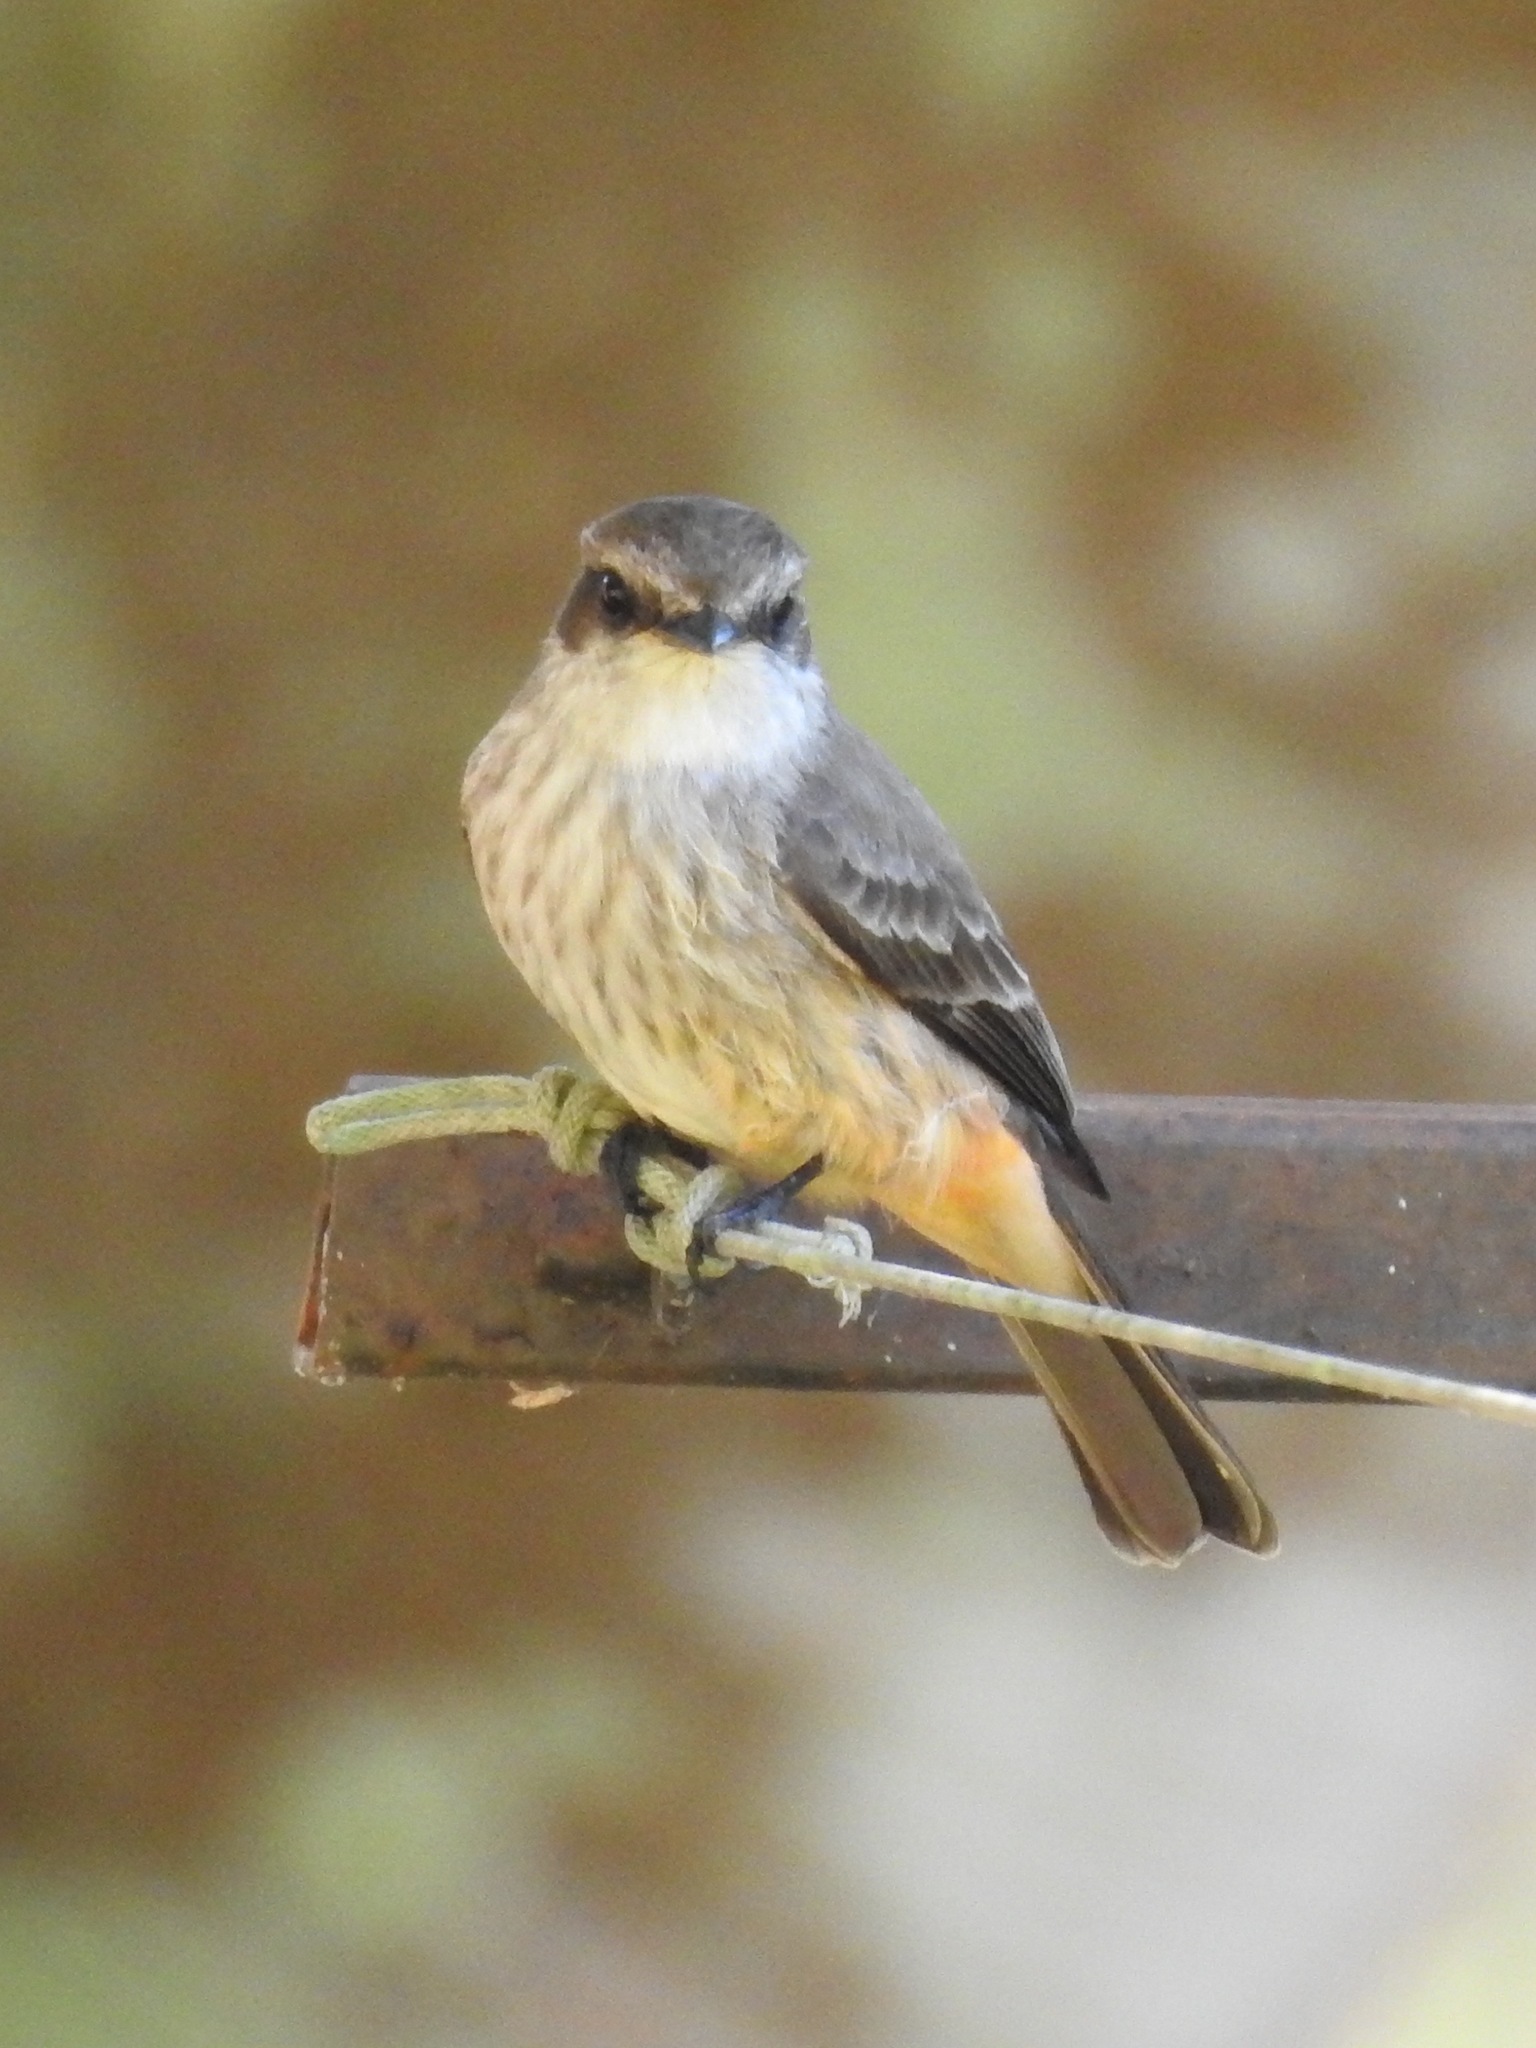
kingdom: Animalia
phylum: Chordata
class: Aves
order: Passeriformes
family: Tyrannidae
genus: Pyrocephalus
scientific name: Pyrocephalus rubinus
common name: Vermilion flycatcher
